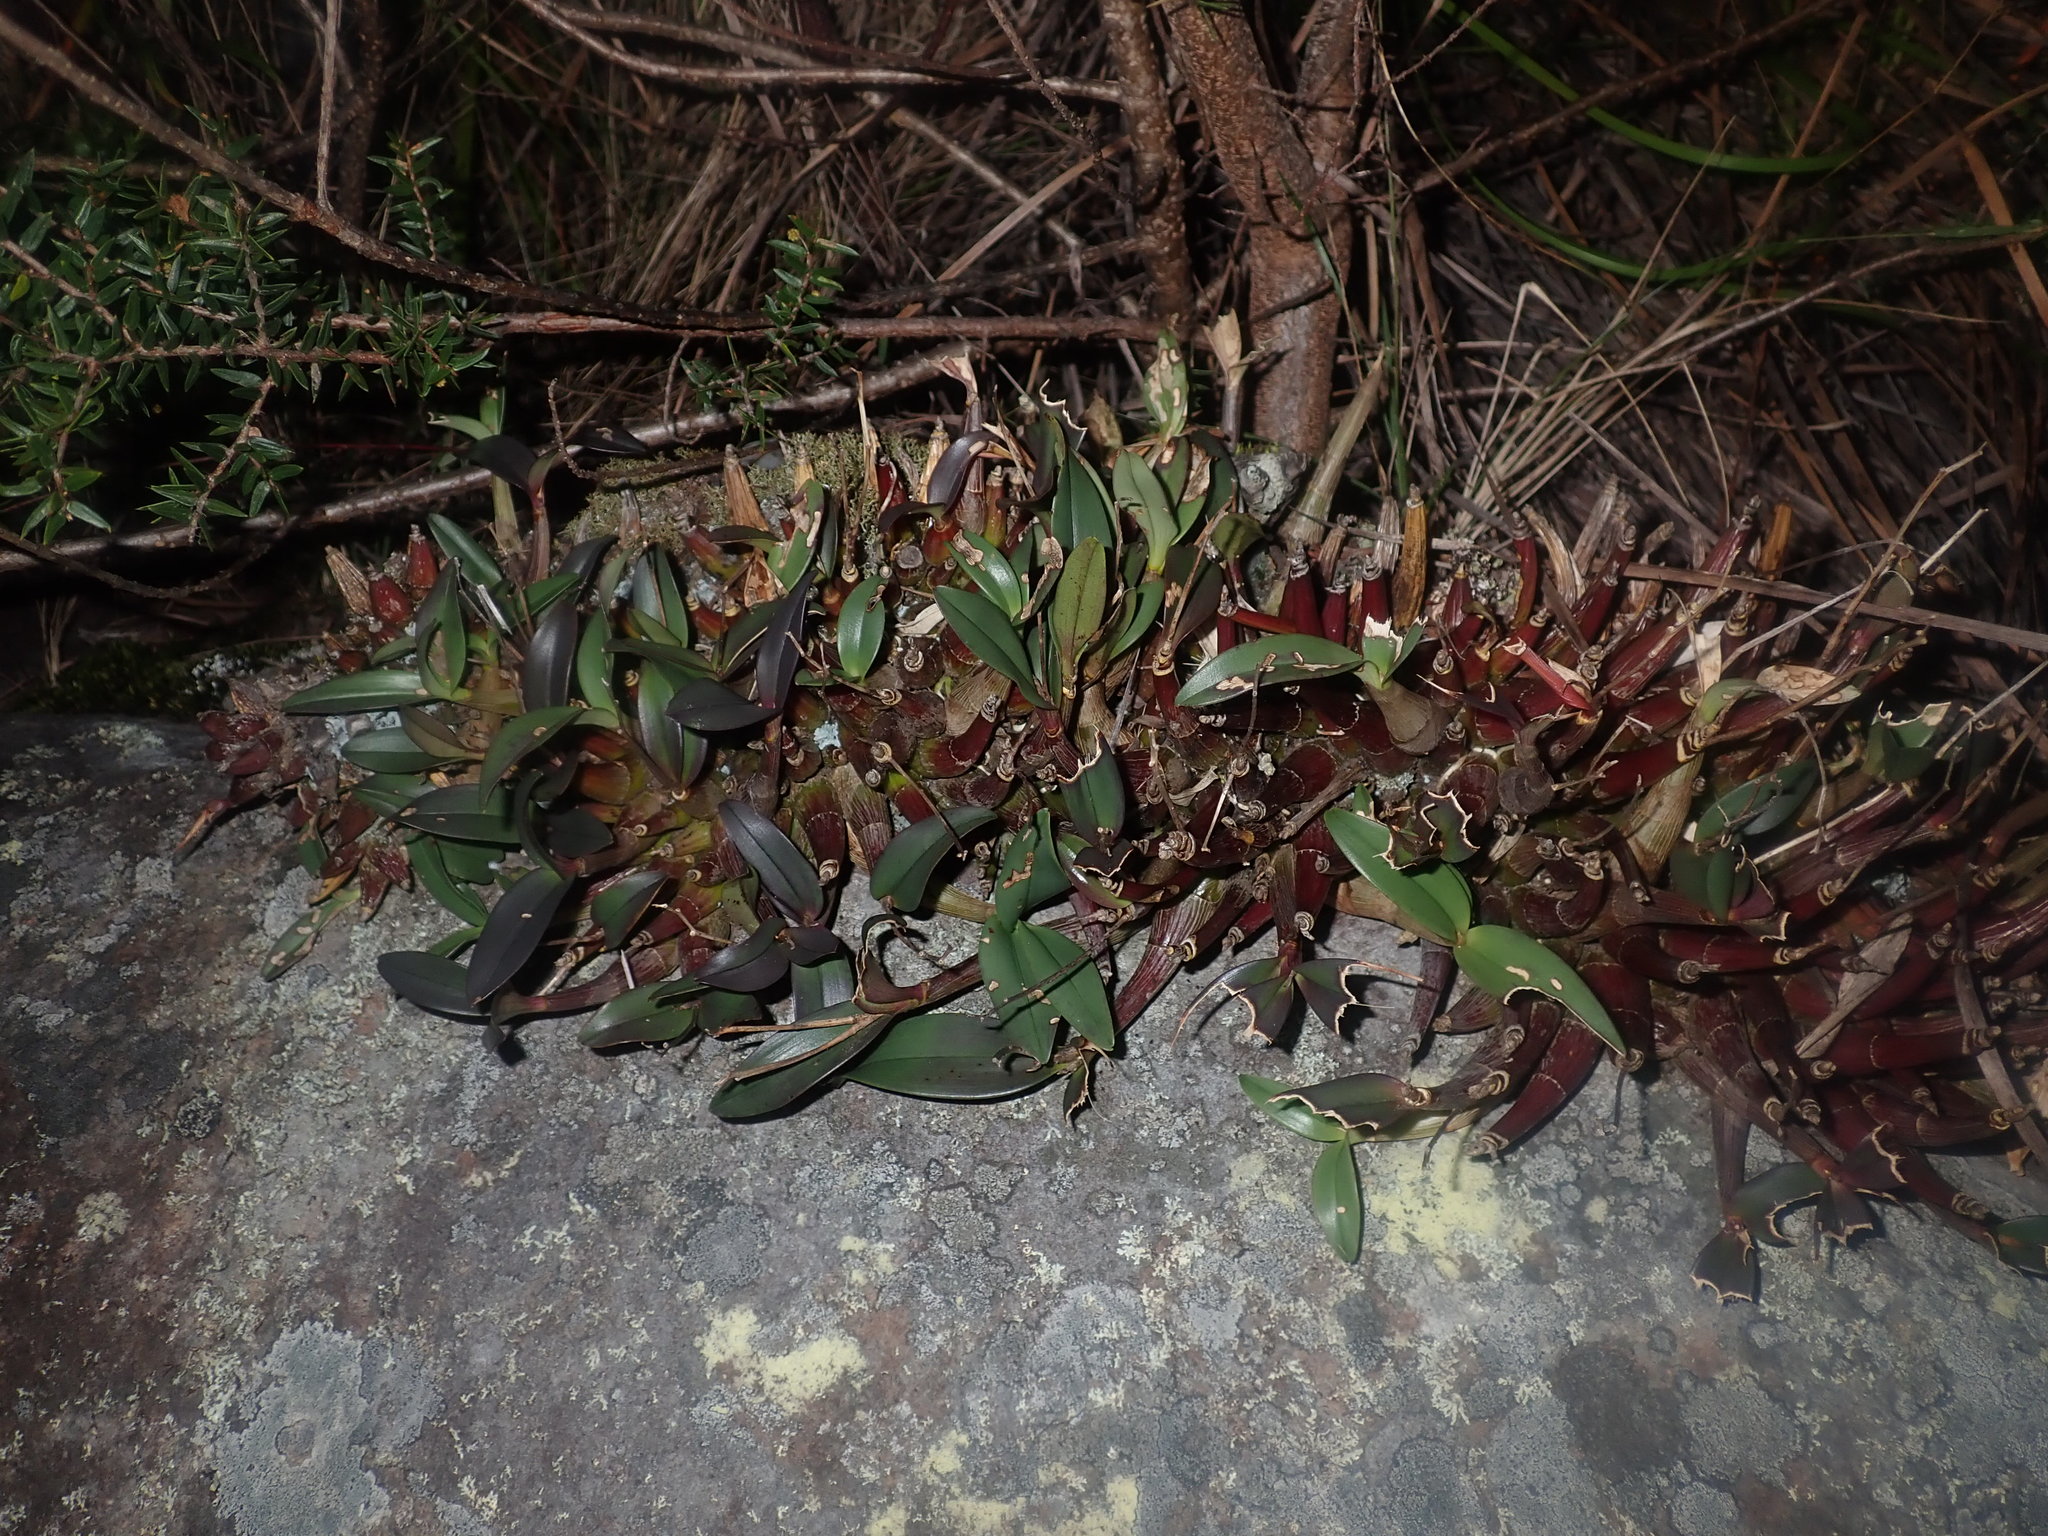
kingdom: Plantae
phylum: Tracheophyta
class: Liliopsida
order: Asparagales
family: Orchidaceae
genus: Dendrobium
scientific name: Dendrobium kingianum
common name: Pink rock orchid
